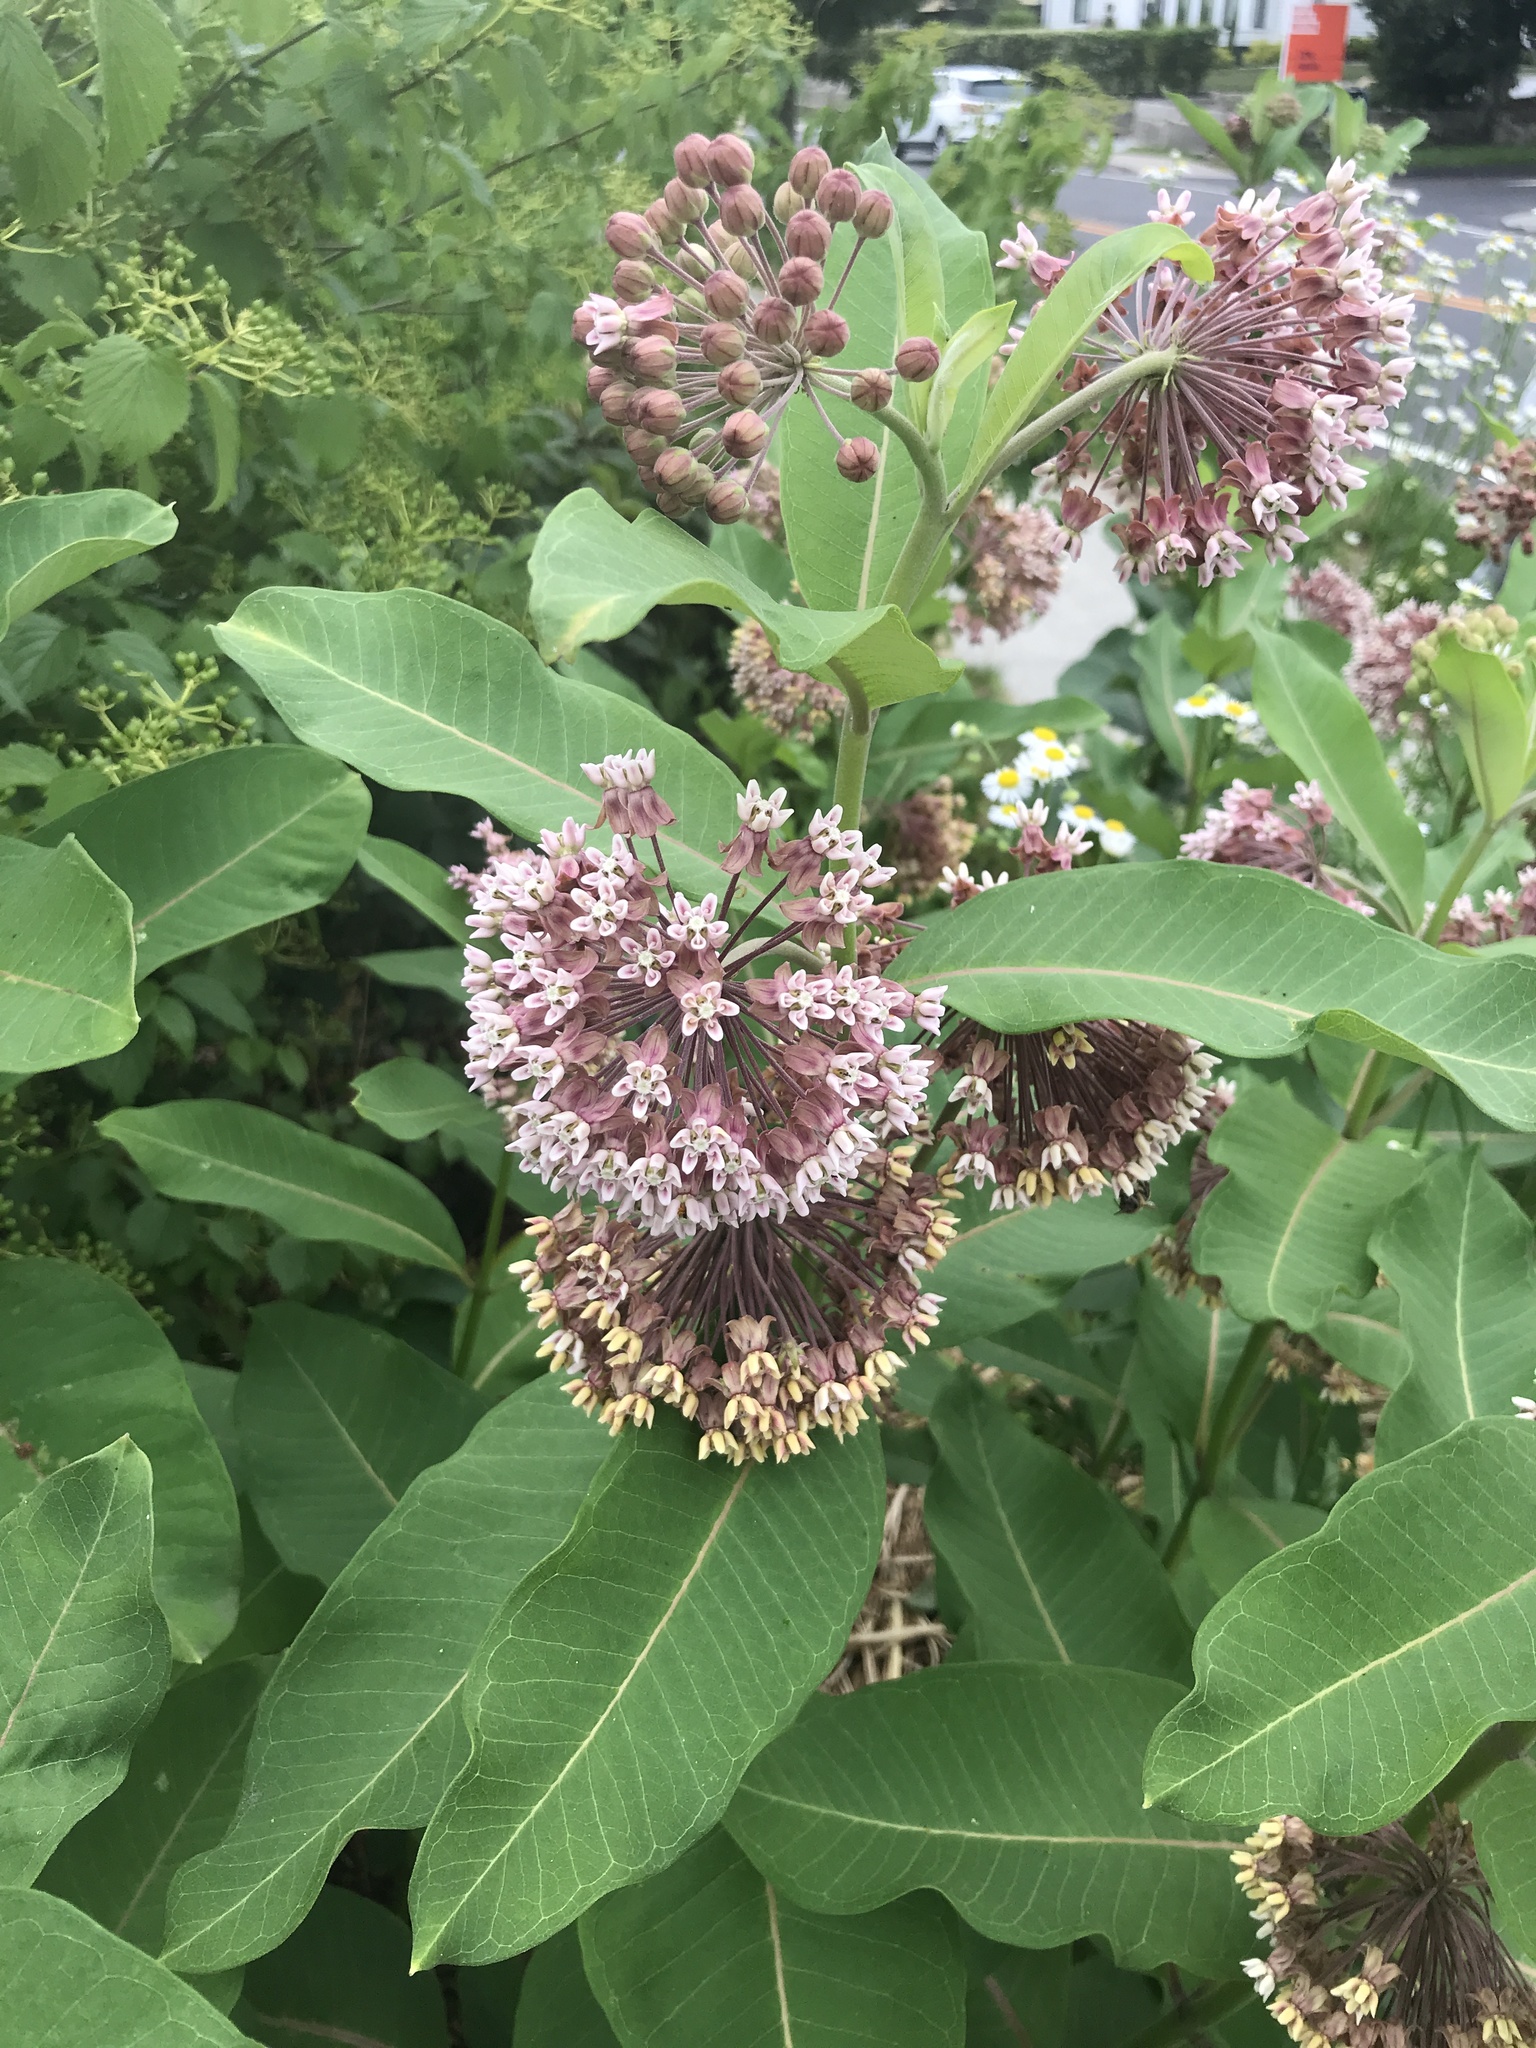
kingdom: Plantae
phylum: Tracheophyta
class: Magnoliopsida
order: Gentianales
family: Apocynaceae
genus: Asclepias
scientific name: Asclepias syriaca
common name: Common milkweed
